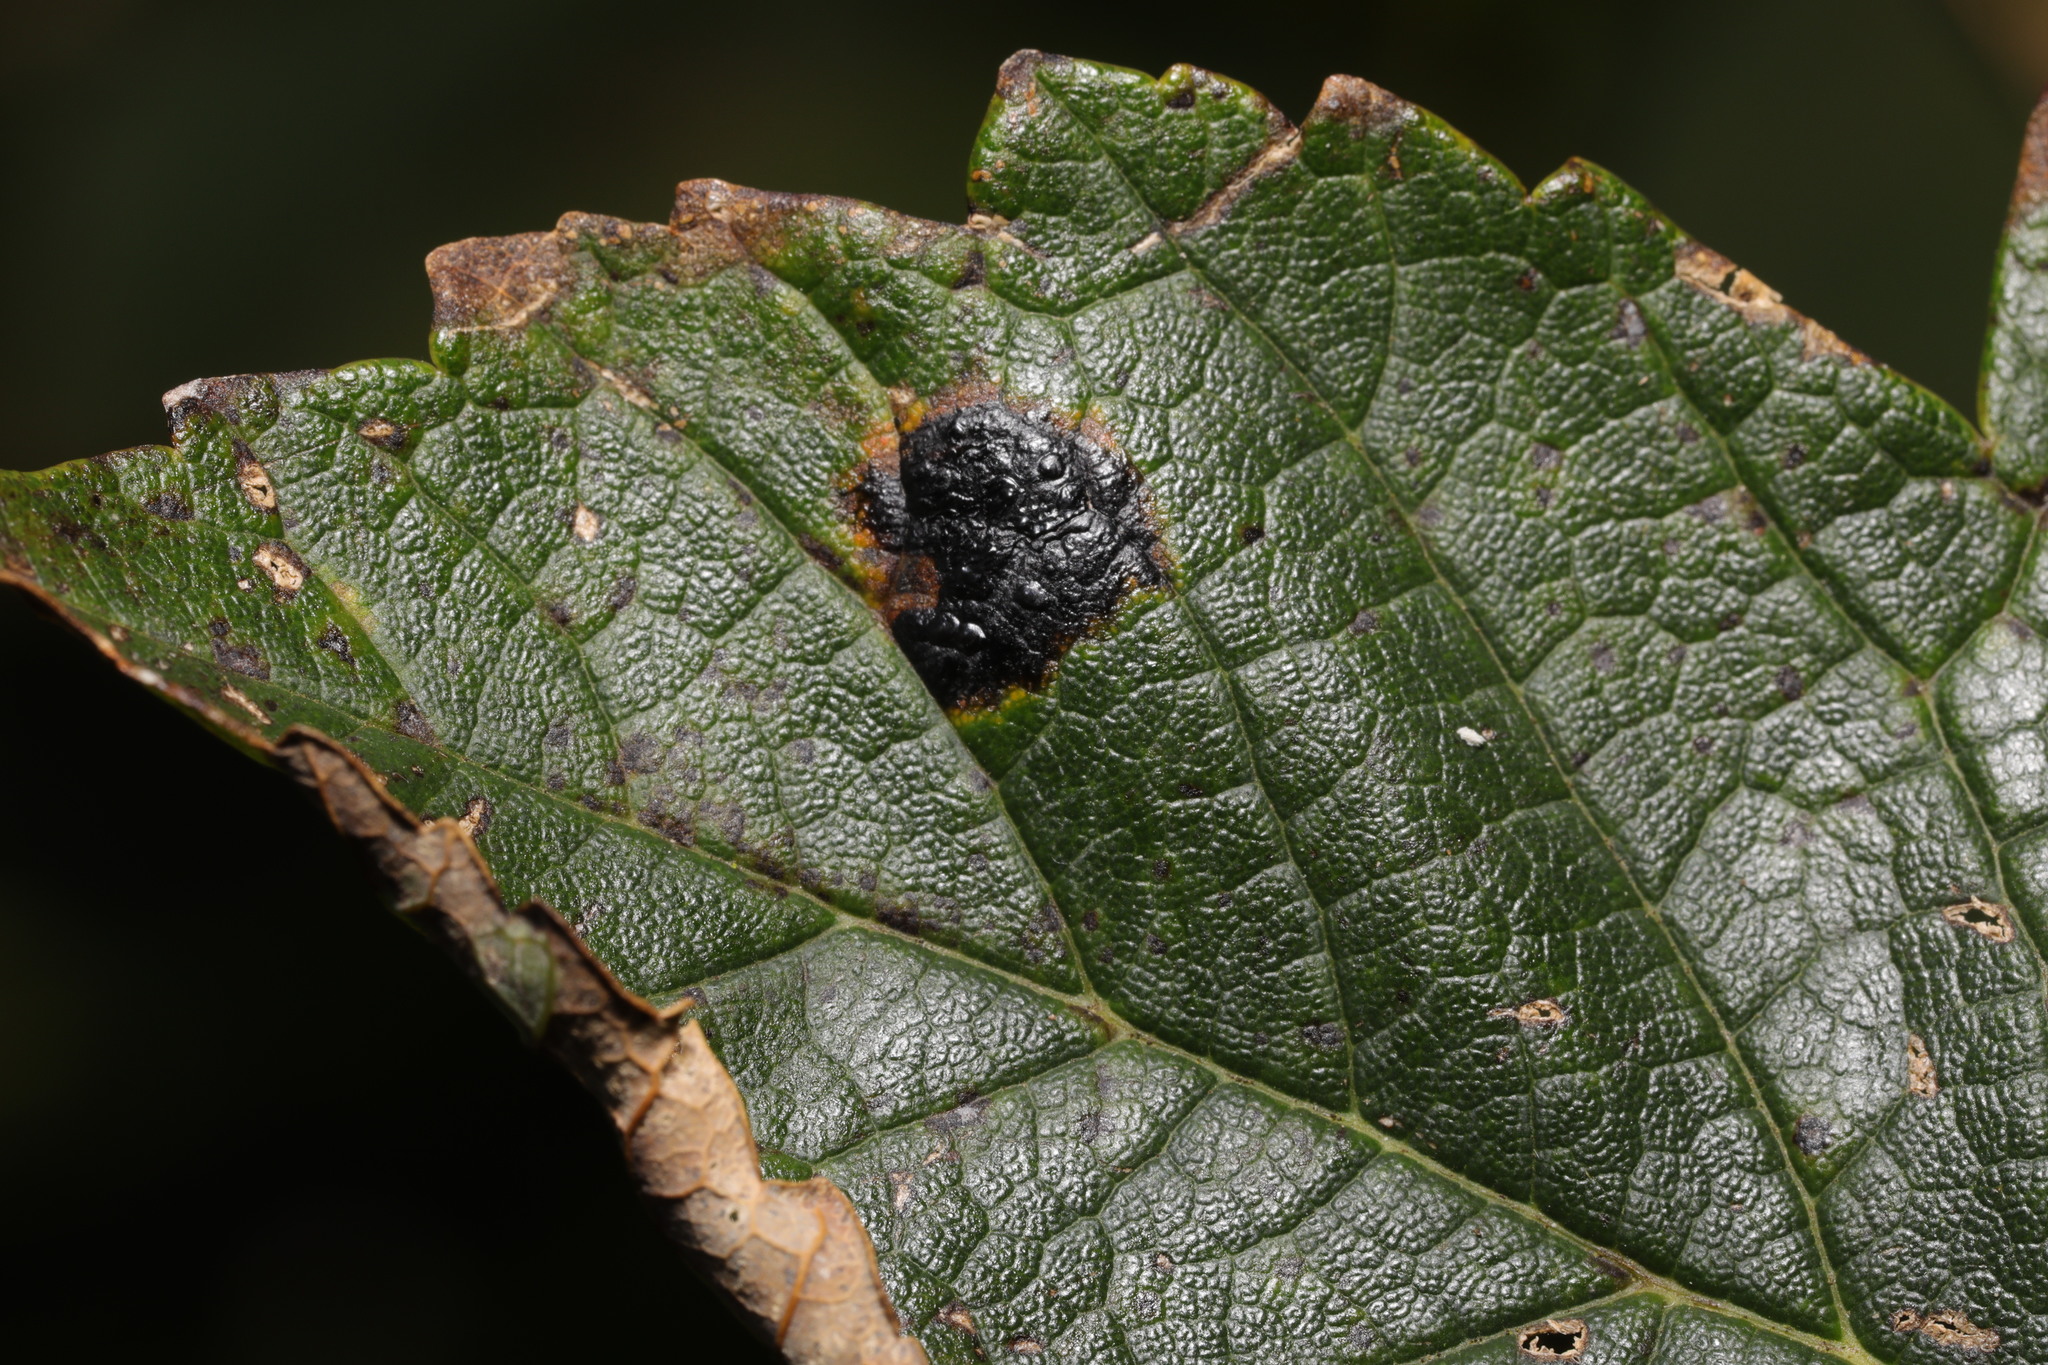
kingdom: Fungi
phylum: Ascomycota
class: Leotiomycetes
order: Rhytismatales
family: Rhytismataceae
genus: Rhytisma
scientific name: Rhytisma acerinum
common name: European tar spot
